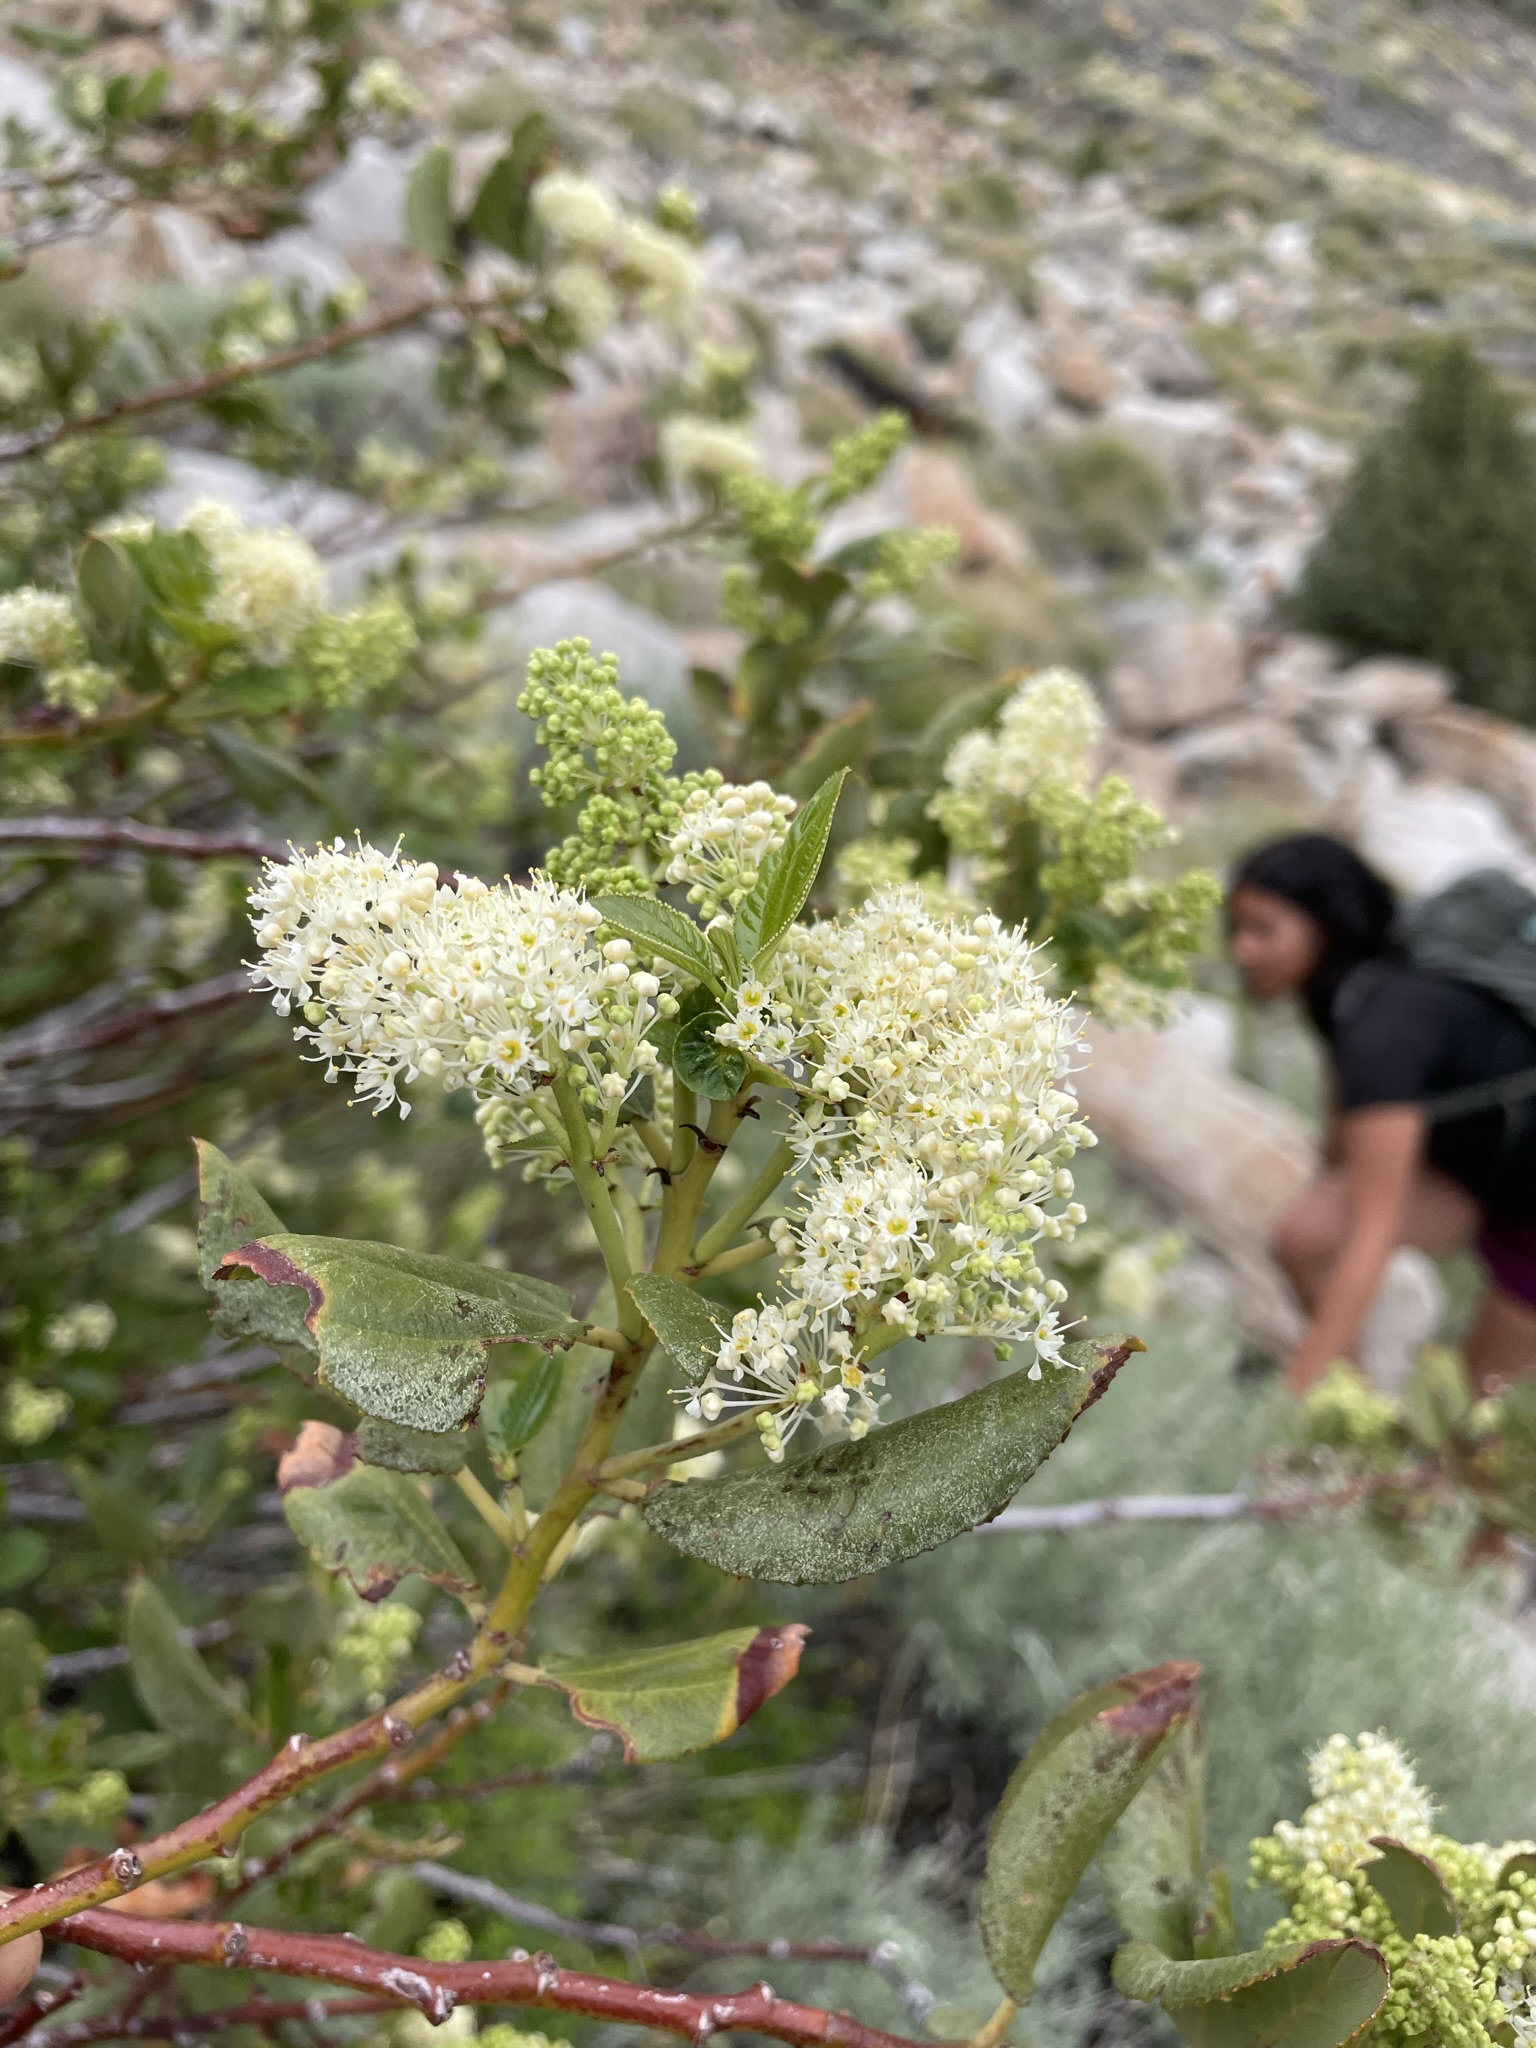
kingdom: Plantae
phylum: Tracheophyta
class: Magnoliopsida
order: Rosales
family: Rhamnaceae
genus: Ceanothus
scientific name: Ceanothus velutinus
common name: Snowbrush
